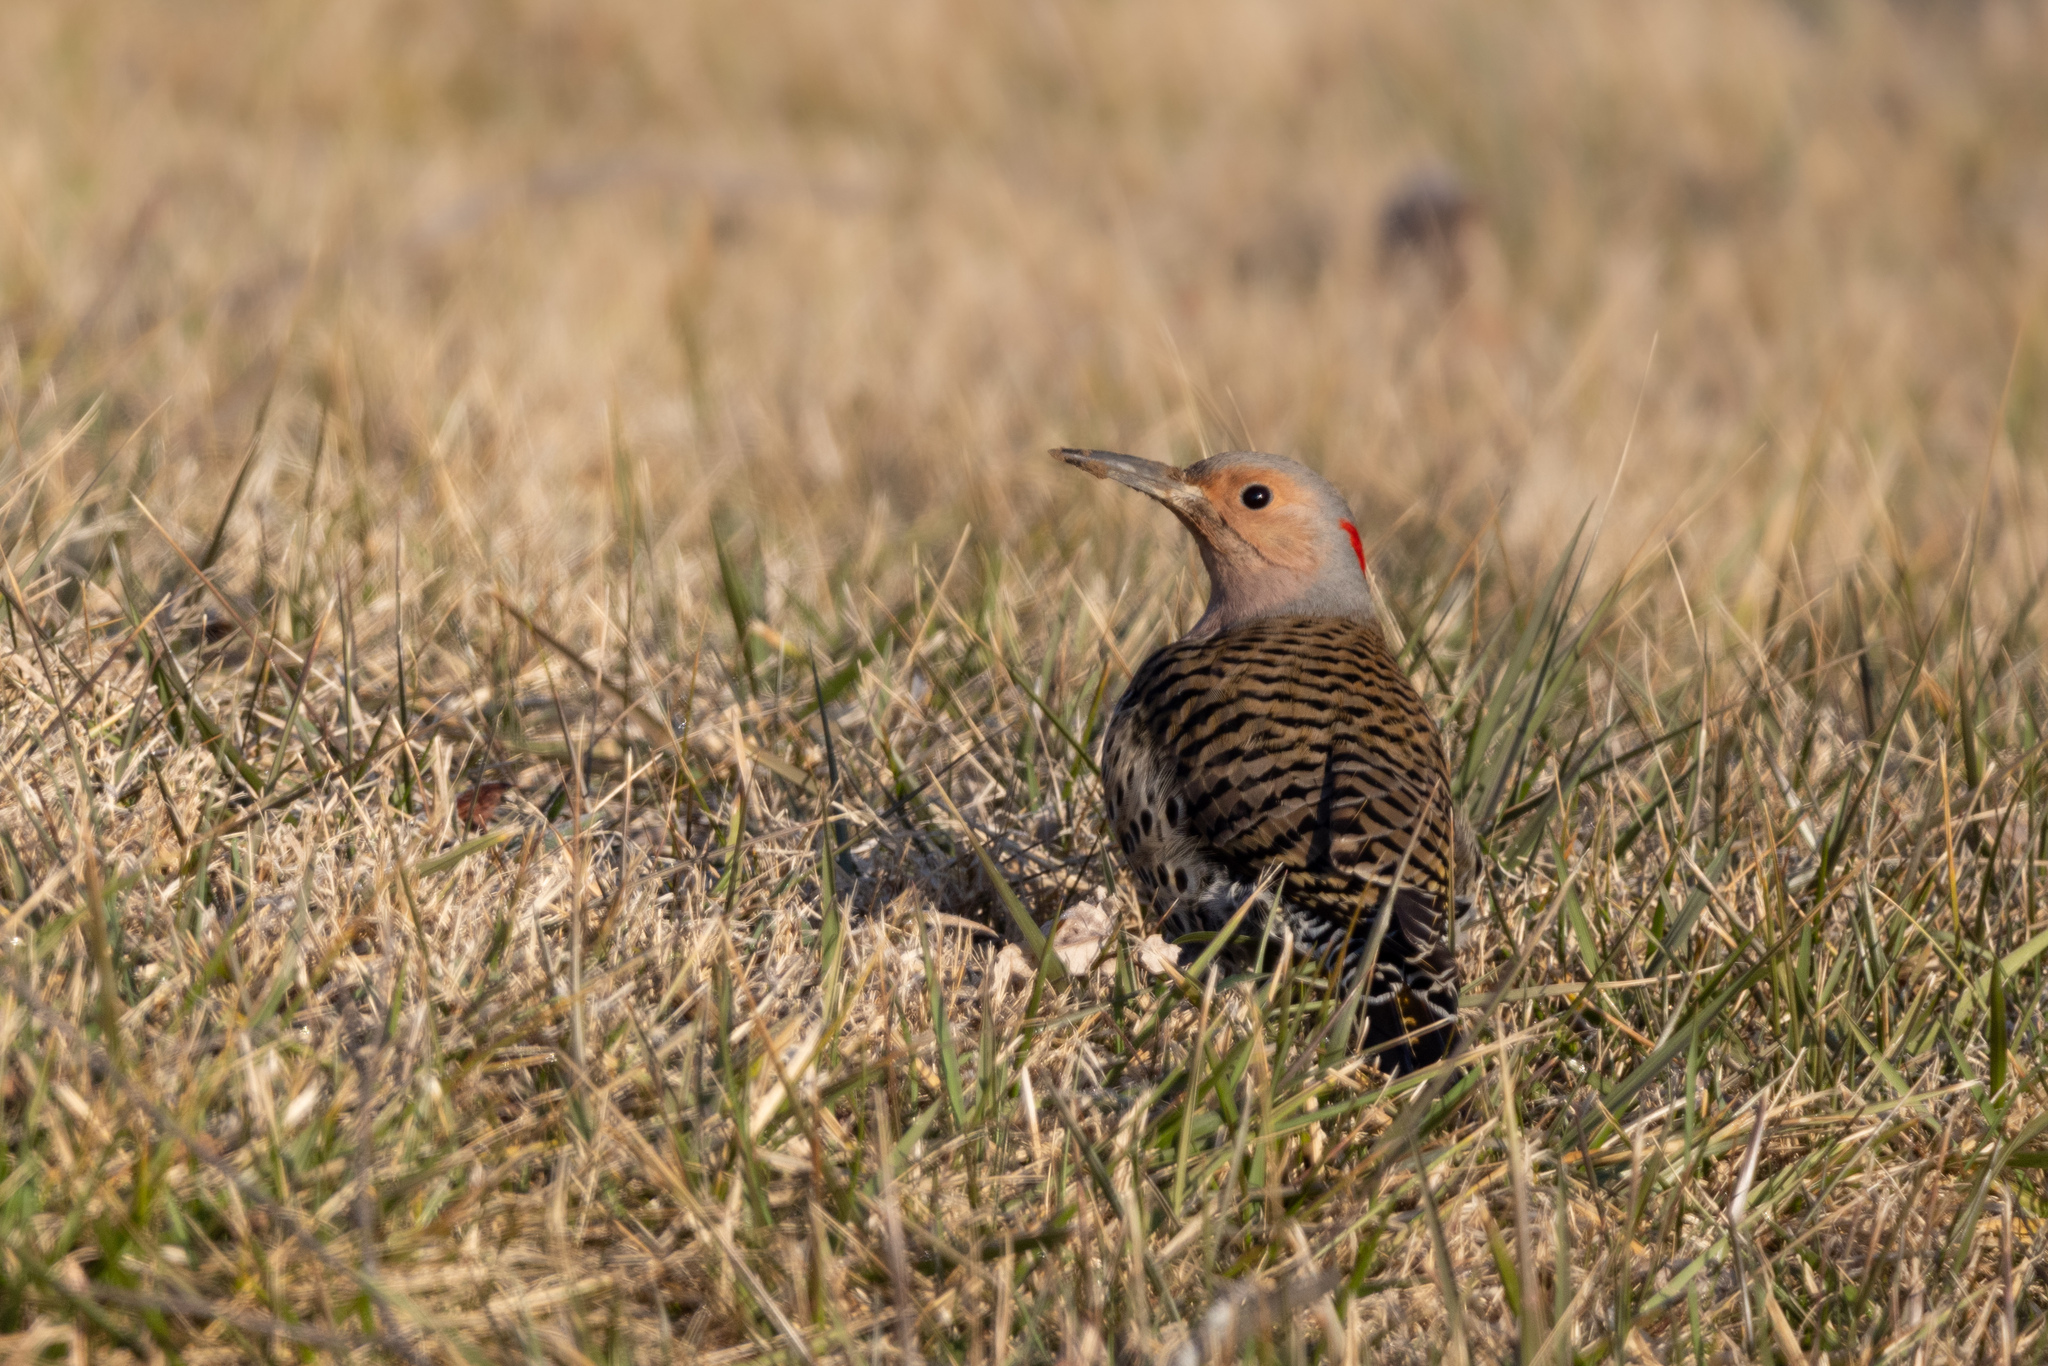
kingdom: Animalia
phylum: Chordata
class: Aves
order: Piciformes
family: Picidae
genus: Colaptes
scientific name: Colaptes auratus
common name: Northern flicker
